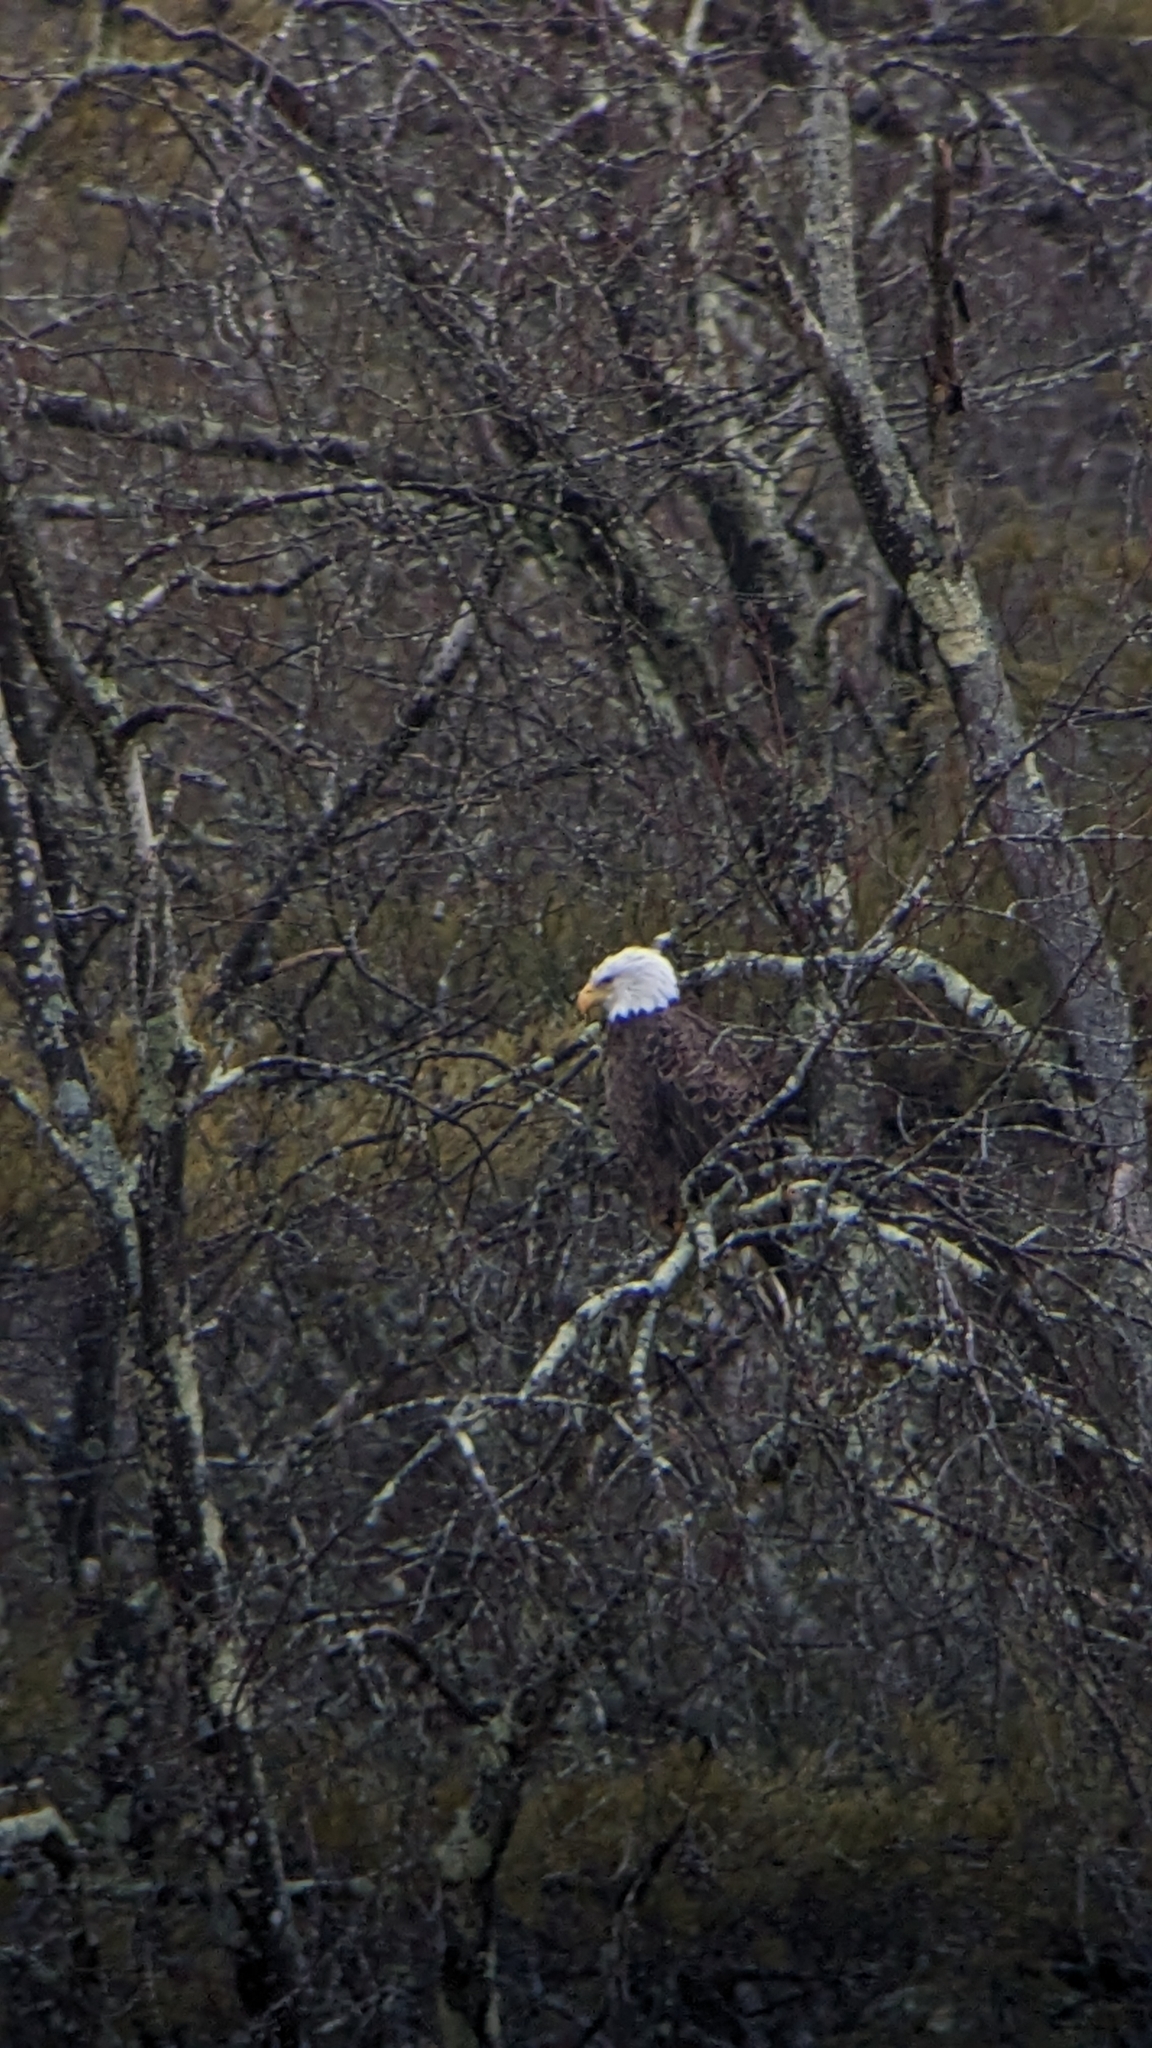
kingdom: Animalia
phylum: Chordata
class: Aves
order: Accipitriformes
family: Accipitridae
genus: Haliaeetus
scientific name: Haliaeetus leucocephalus
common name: Bald eagle
